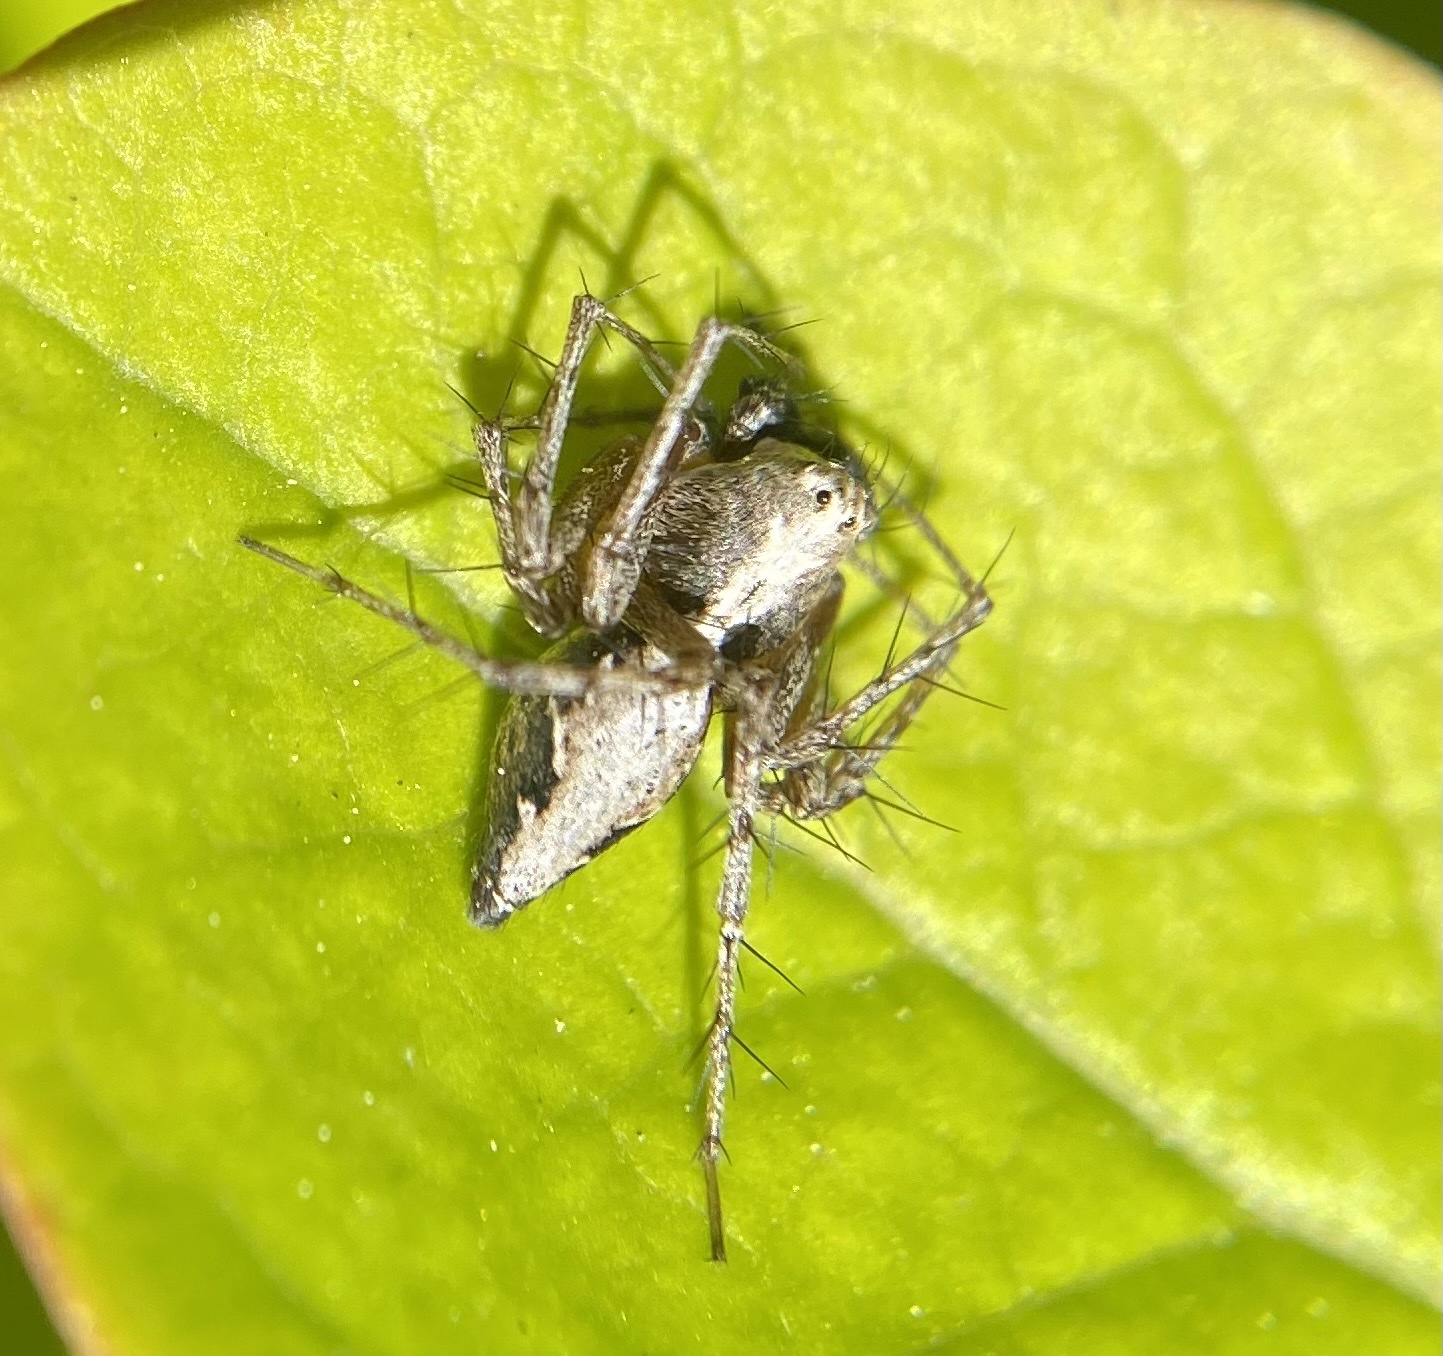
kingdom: Animalia
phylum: Arthropoda
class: Arachnida
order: Araneae
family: Oxyopidae
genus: Oxyopes
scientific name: Oxyopes scalaris
